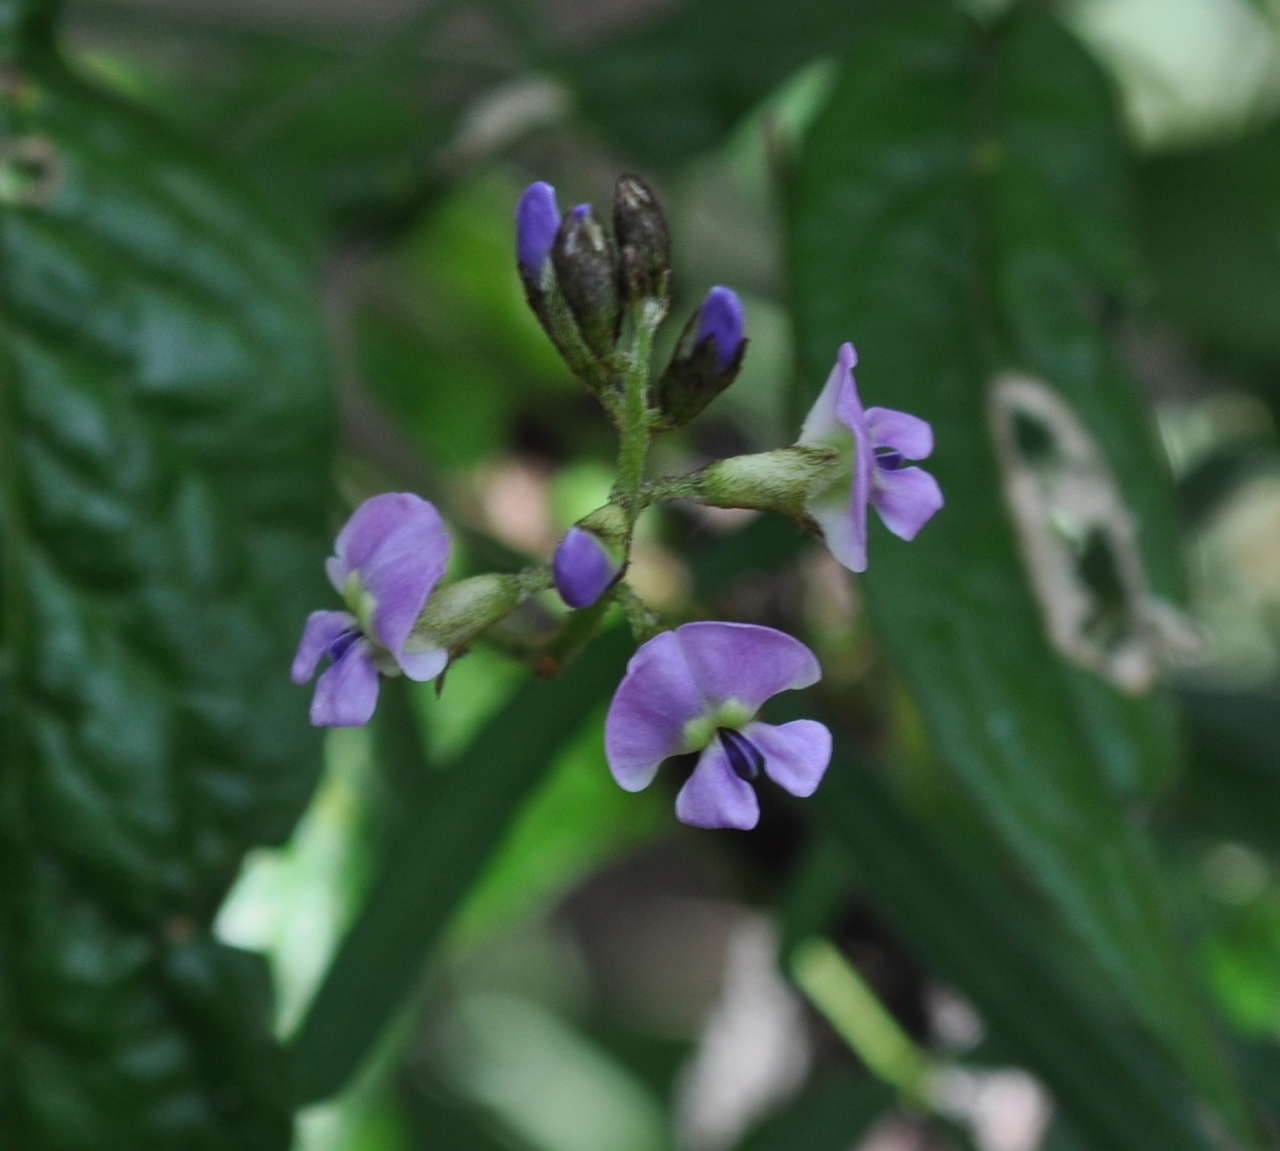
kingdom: Plantae
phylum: Tracheophyta
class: Magnoliopsida
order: Fabales
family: Fabaceae
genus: Glycine
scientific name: Glycine clandestina
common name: Twining glycine
